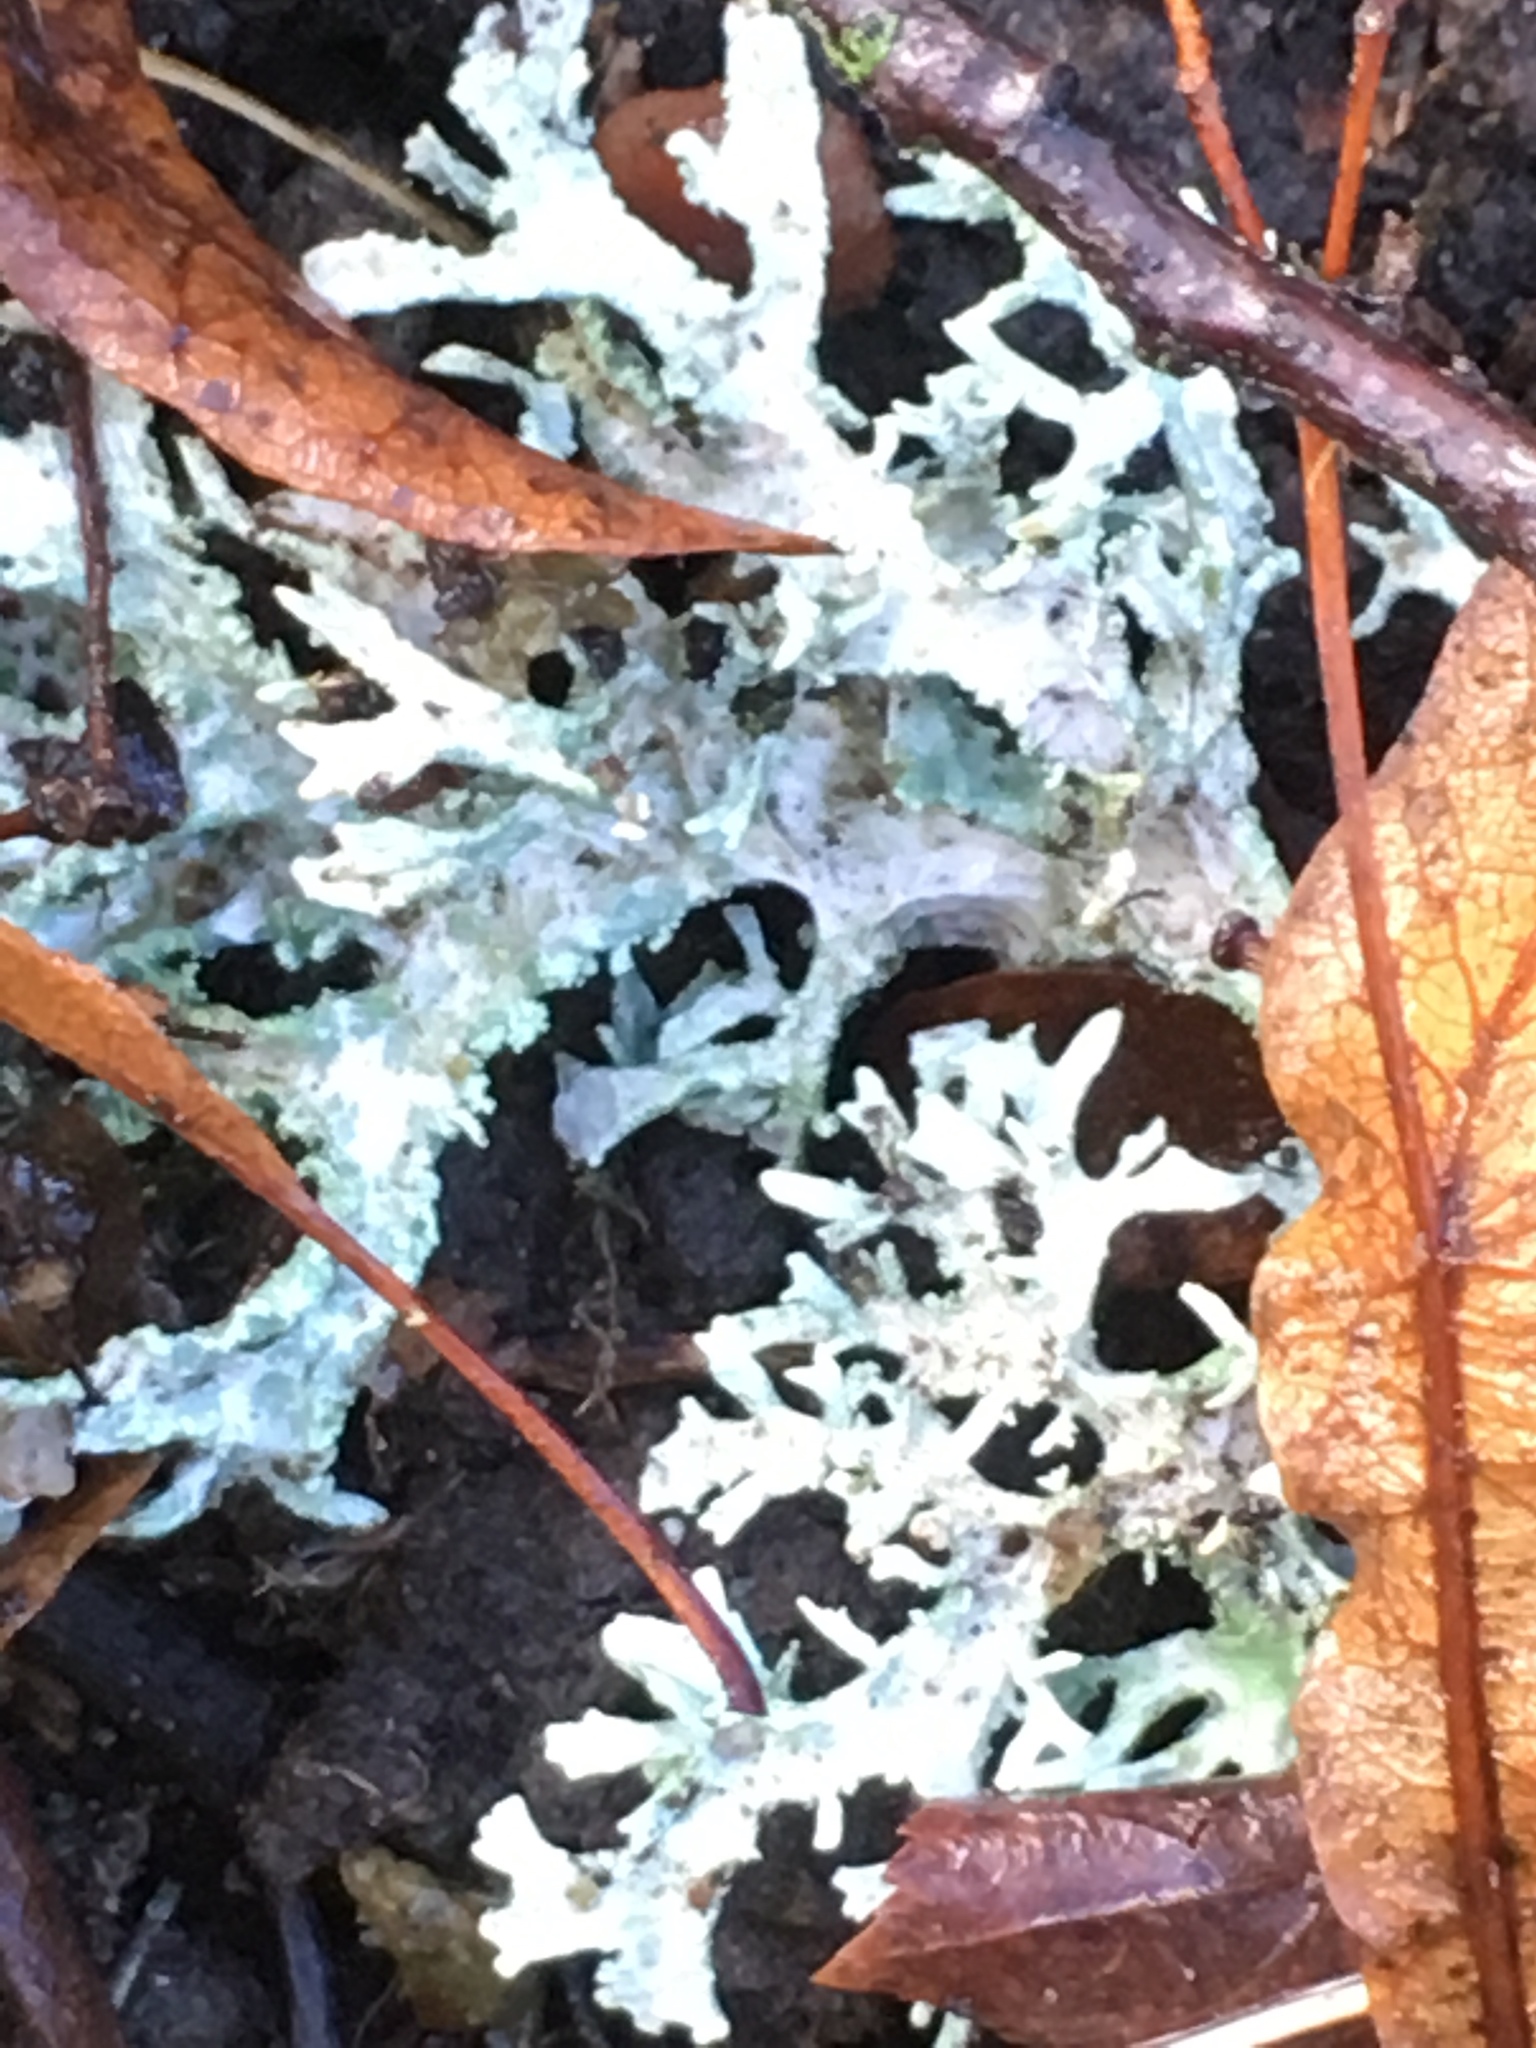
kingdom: Fungi
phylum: Ascomycota
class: Lecanoromycetes
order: Lecanorales
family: Parmeliaceae
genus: Evernia
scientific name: Evernia prunastri
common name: Oak moss
